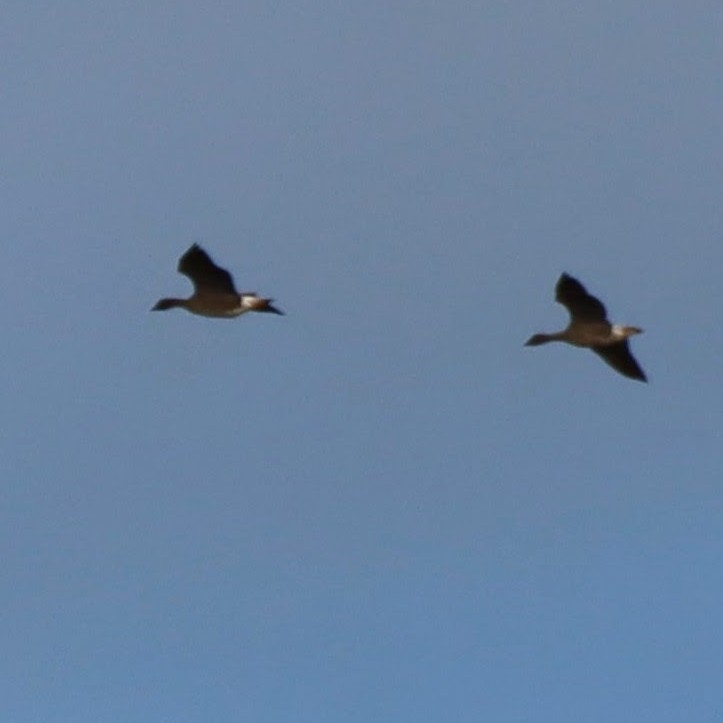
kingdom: Animalia
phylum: Chordata
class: Aves
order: Anseriformes
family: Anatidae
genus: Anser
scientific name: Anser brachyrhynchus
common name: Pink-footed goose
